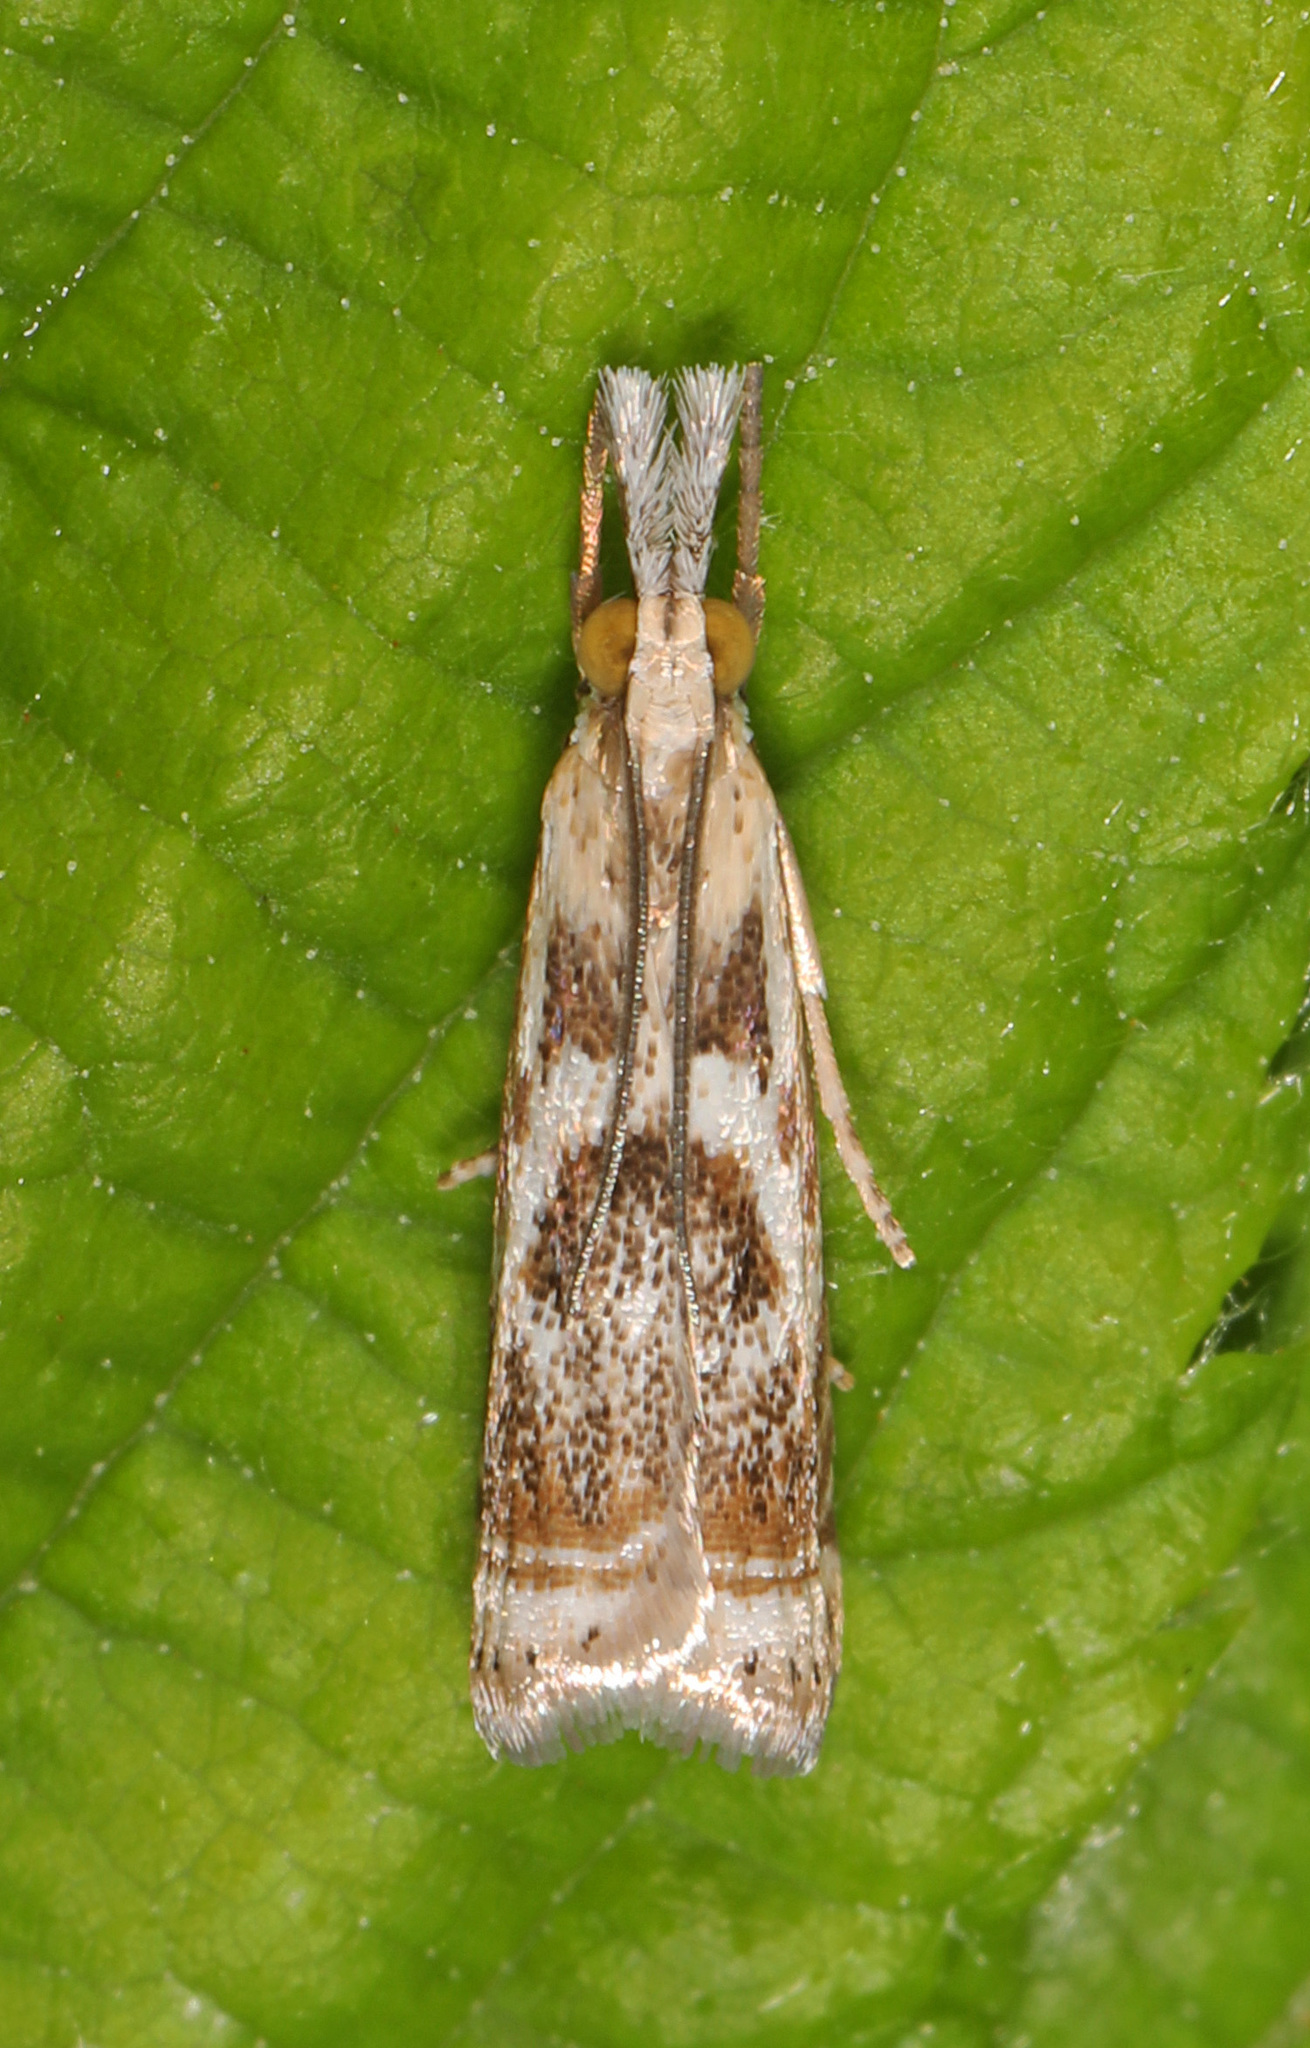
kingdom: Animalia
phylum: Arthropoda
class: Insecta
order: Lepidoptera
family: Crambidae
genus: Microcrambus
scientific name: Microcrambus elegans
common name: Elegant grass-veneer
